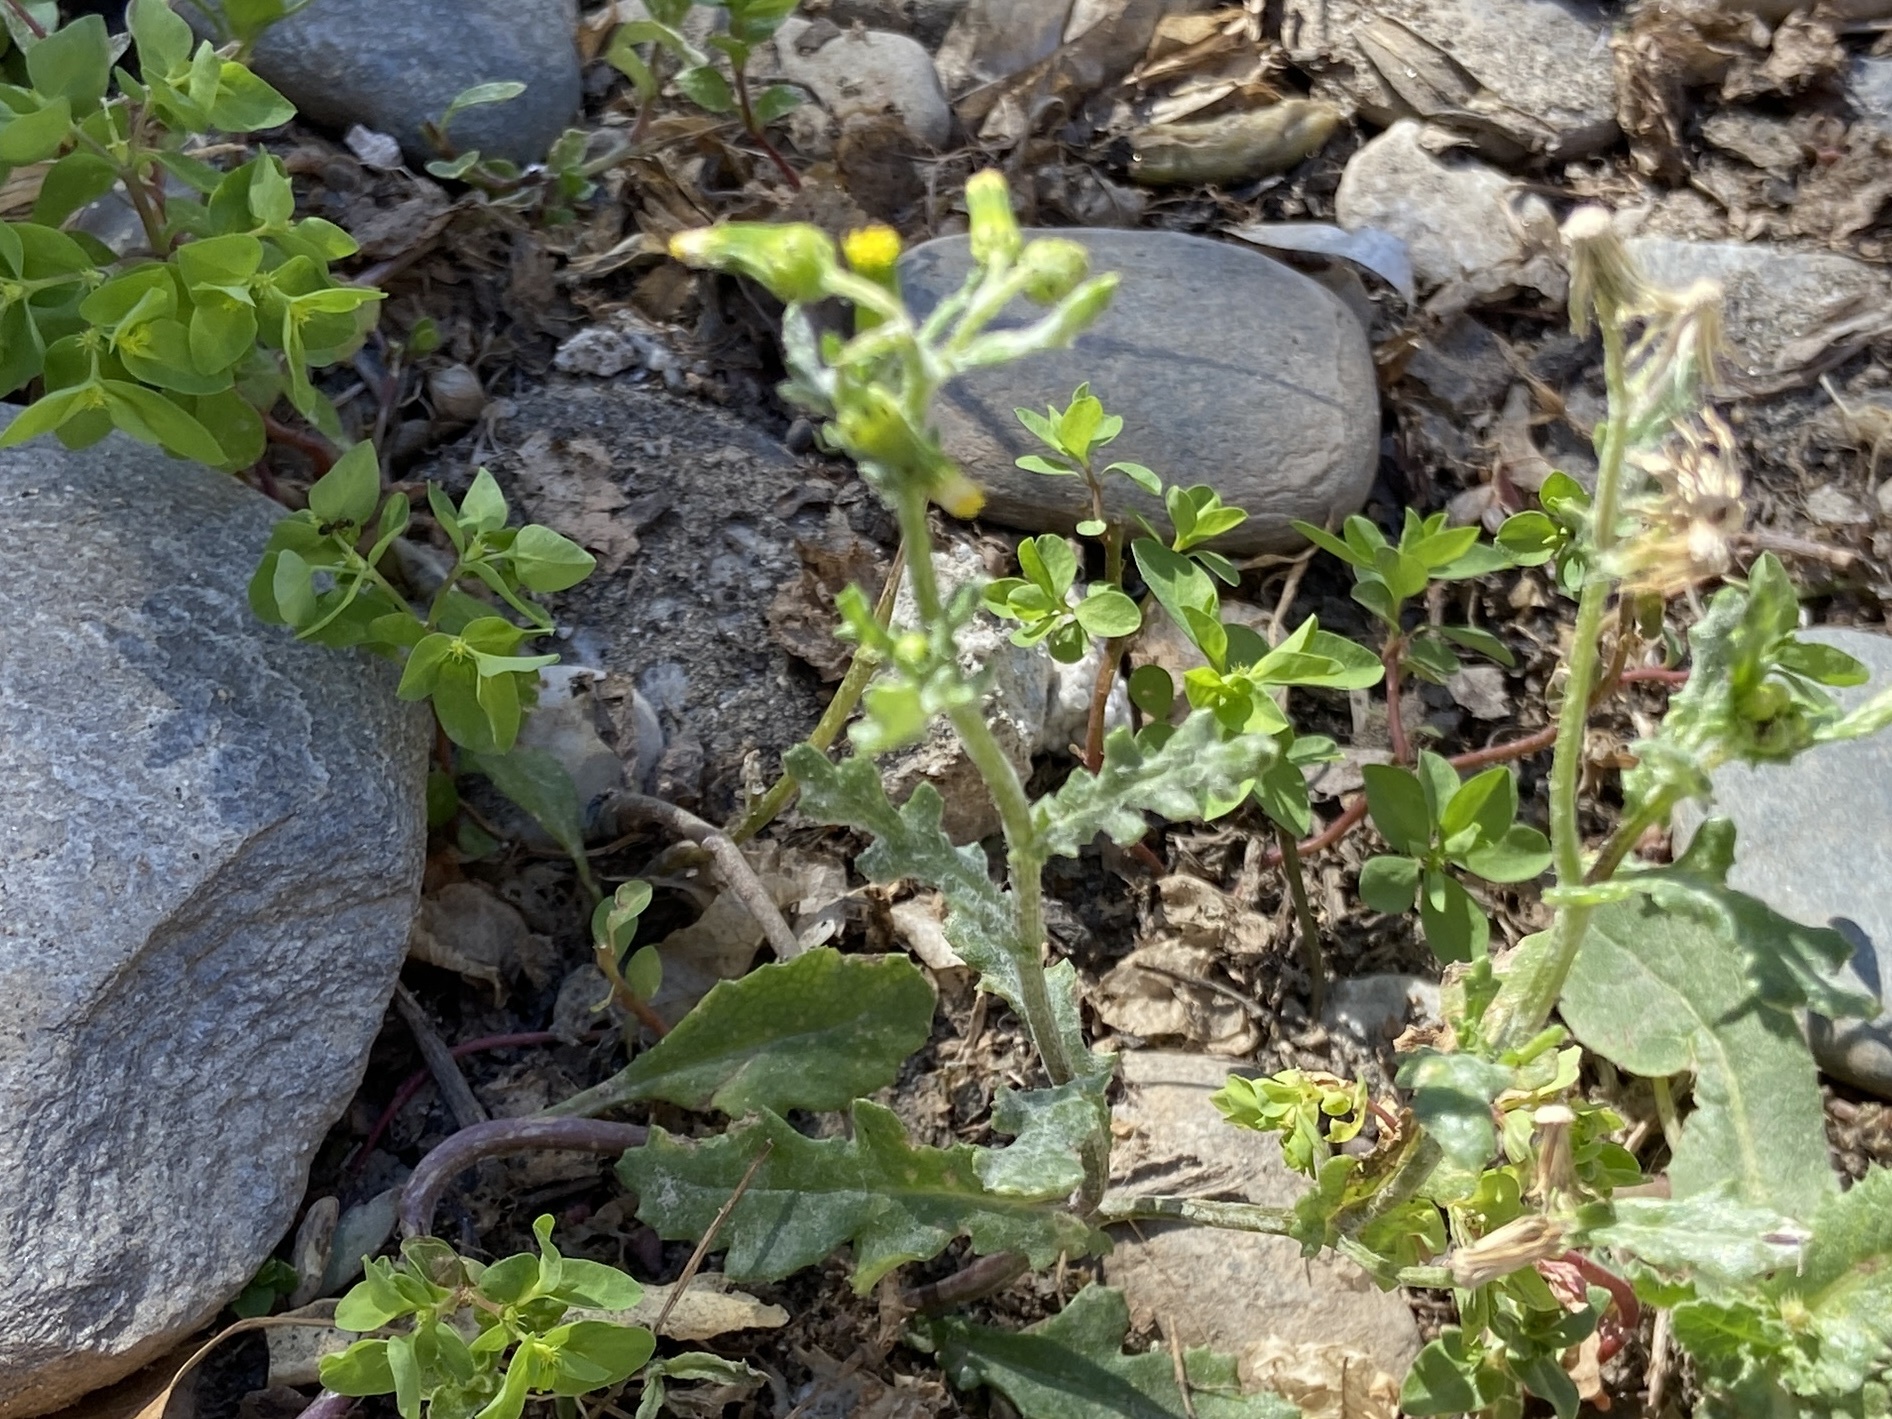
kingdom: Plantae
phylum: Tracheophyta
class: Magnoliopsida
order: Asterales
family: Asteraceae
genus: Senecio
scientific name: Senecio vulgaris
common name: Old-man-in-the-spring
